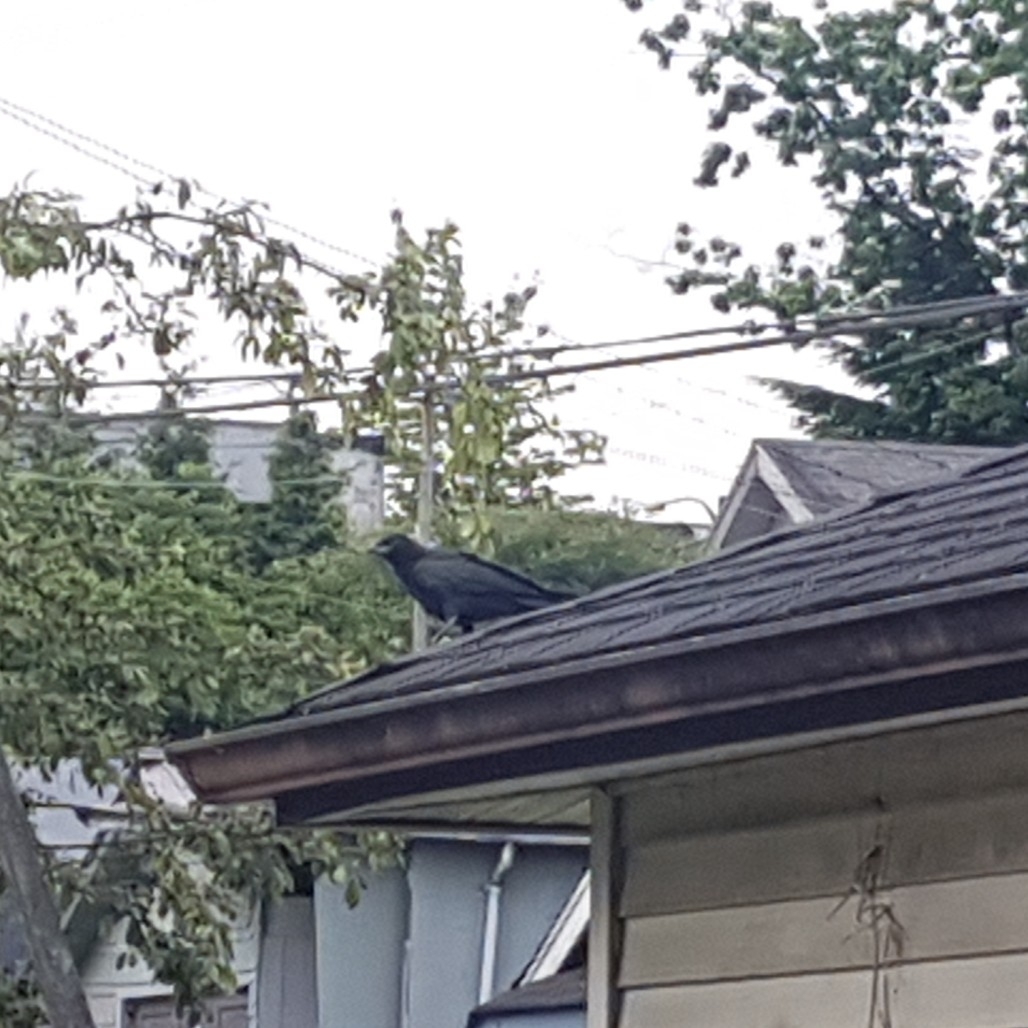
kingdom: Animalia
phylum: Chordata
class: Aves
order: Passeriformes
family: Corvidae
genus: Corvus
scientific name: Corvus brachyrhynchos
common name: American crow
